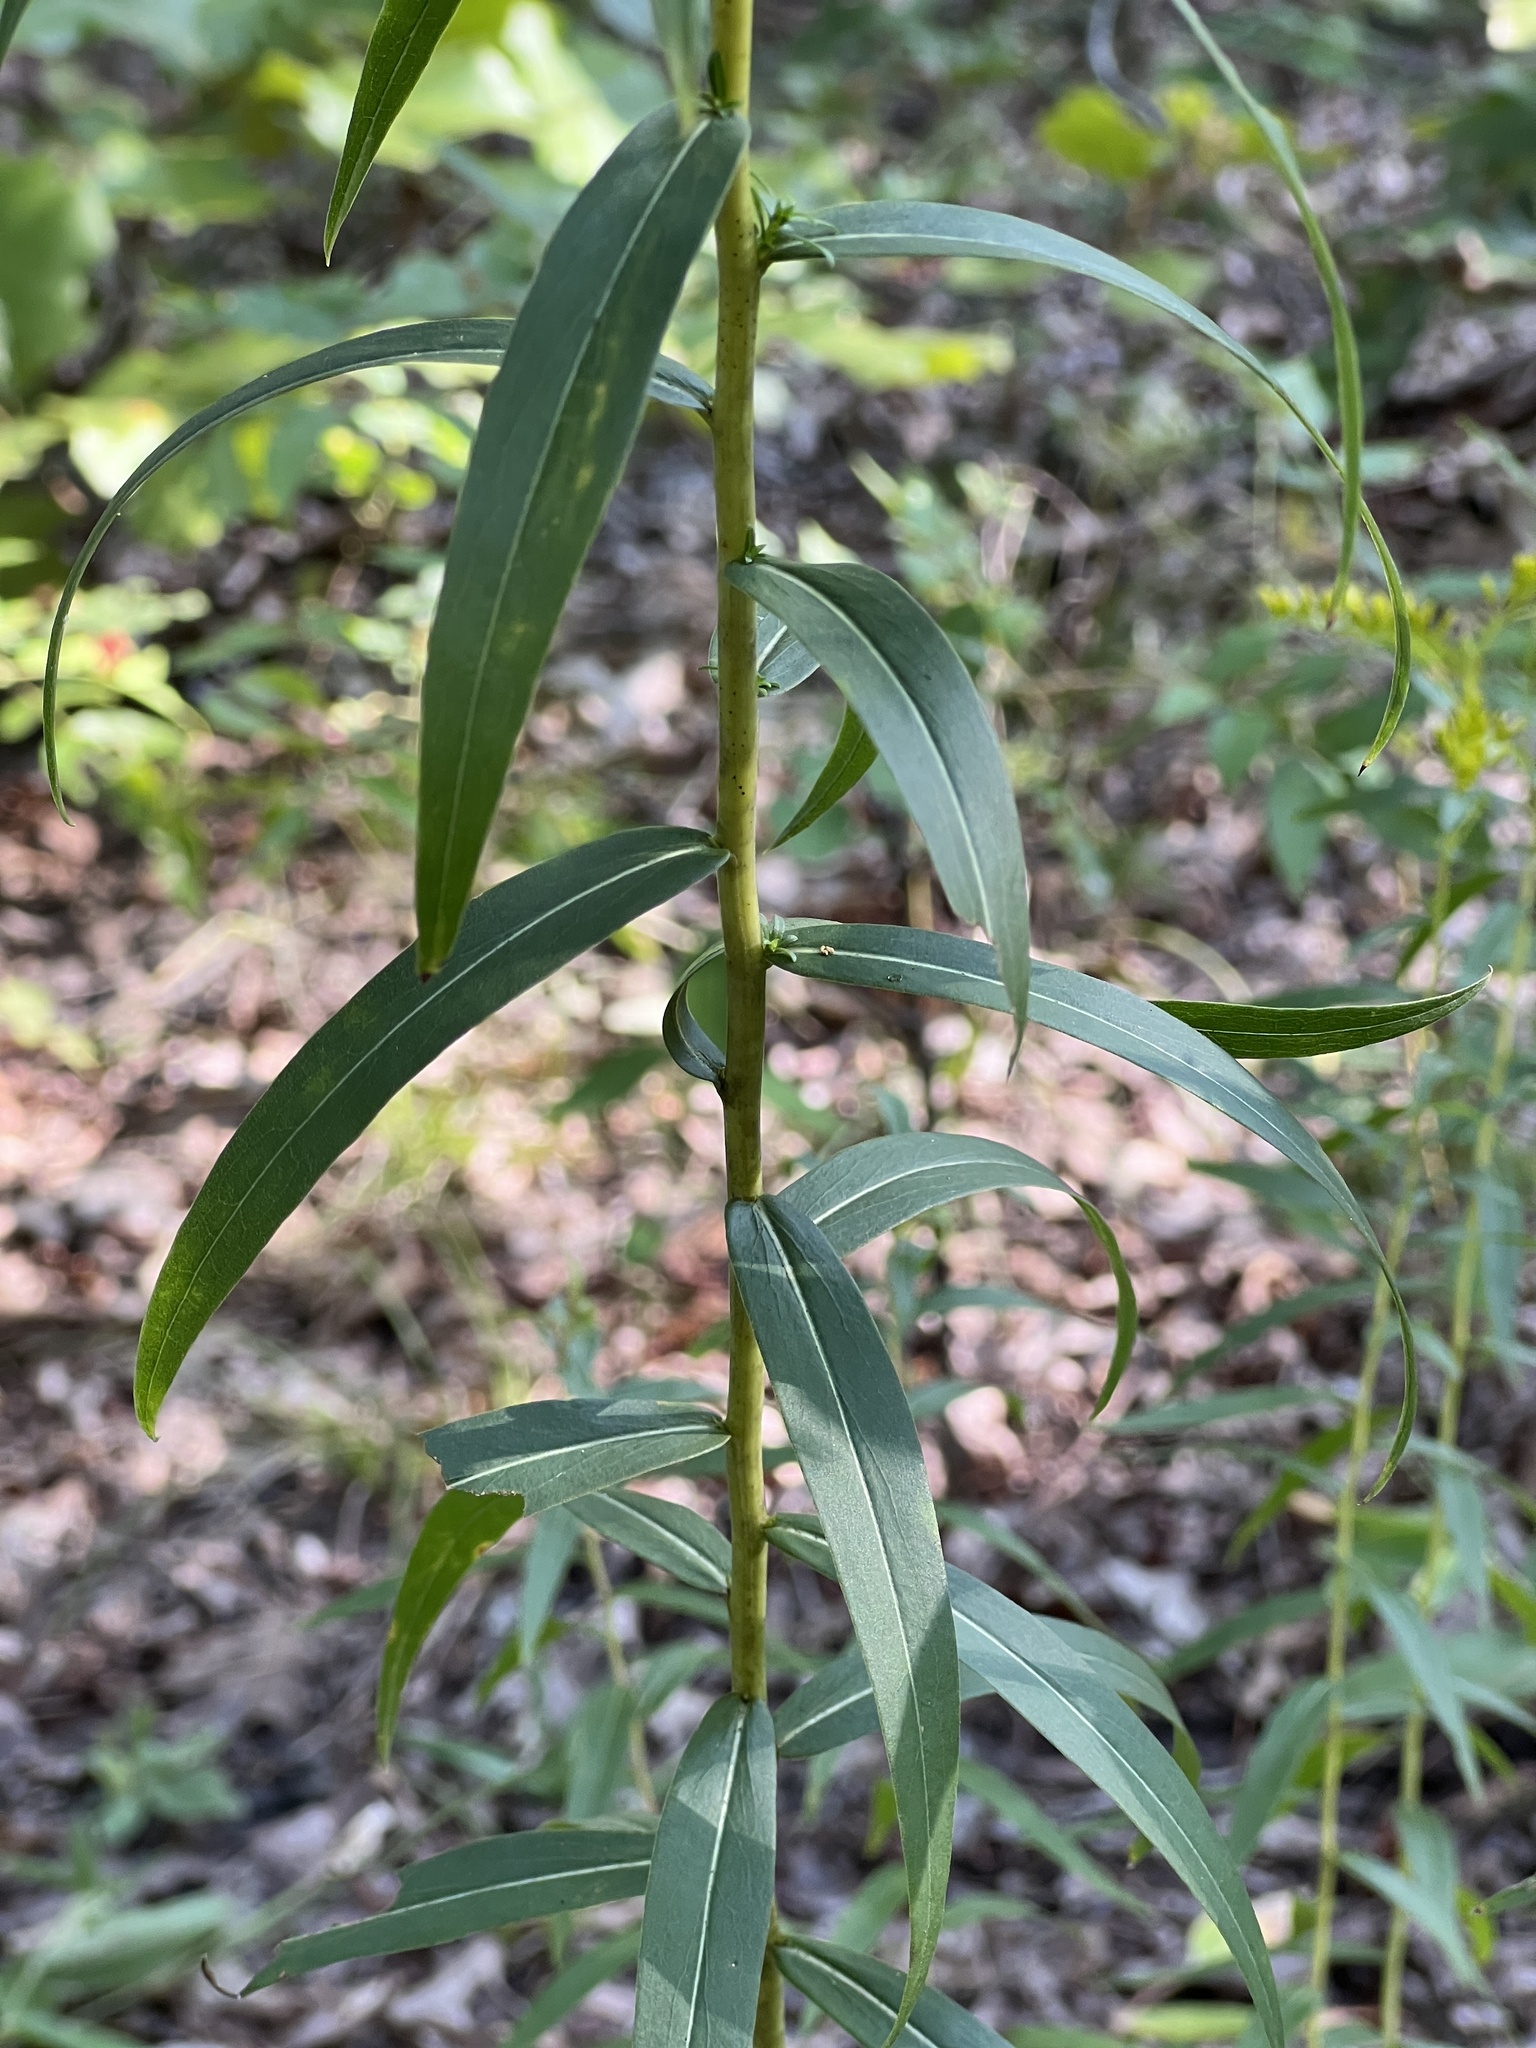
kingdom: Plantae
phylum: Tracheophyta
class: Magnoliopsida
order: Asterales
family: Asteraceae
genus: Solidago
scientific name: Solidago odora
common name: Anise-scented goldenrod
